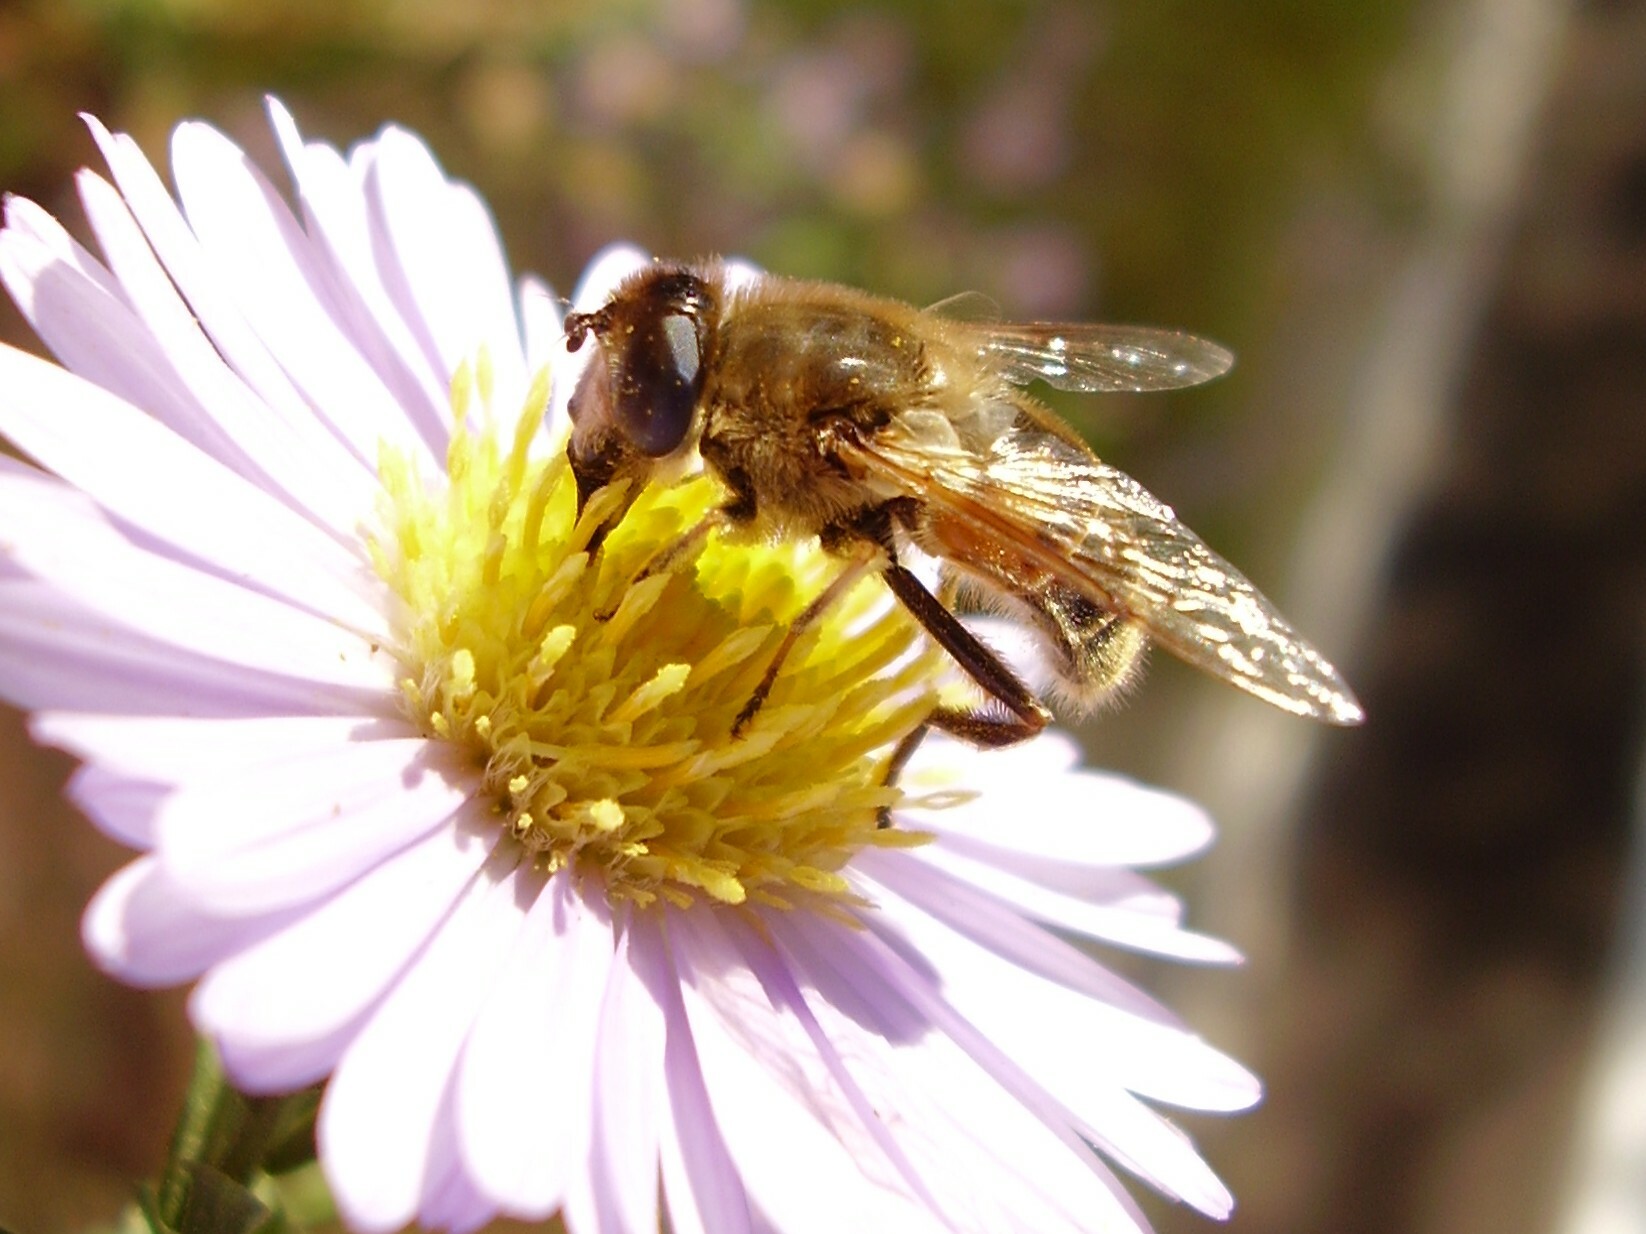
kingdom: Animalia
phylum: Arthropoda
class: Insecta
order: Diptera
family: Syrphidae
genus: Eristalis
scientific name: Eristalis tenax
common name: Drone fly
